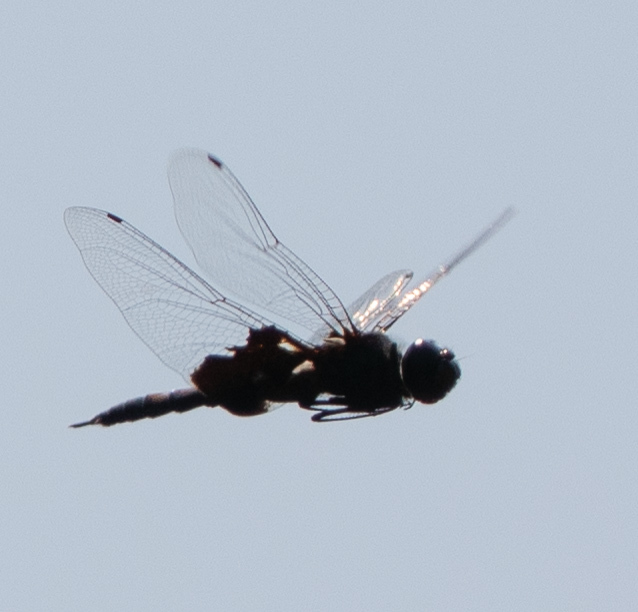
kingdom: Animalia
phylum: Arthropoda
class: Insecta
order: Odonata
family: Libellulidae
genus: Tramea
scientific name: Tramea lacerata
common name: Black saddlebags
